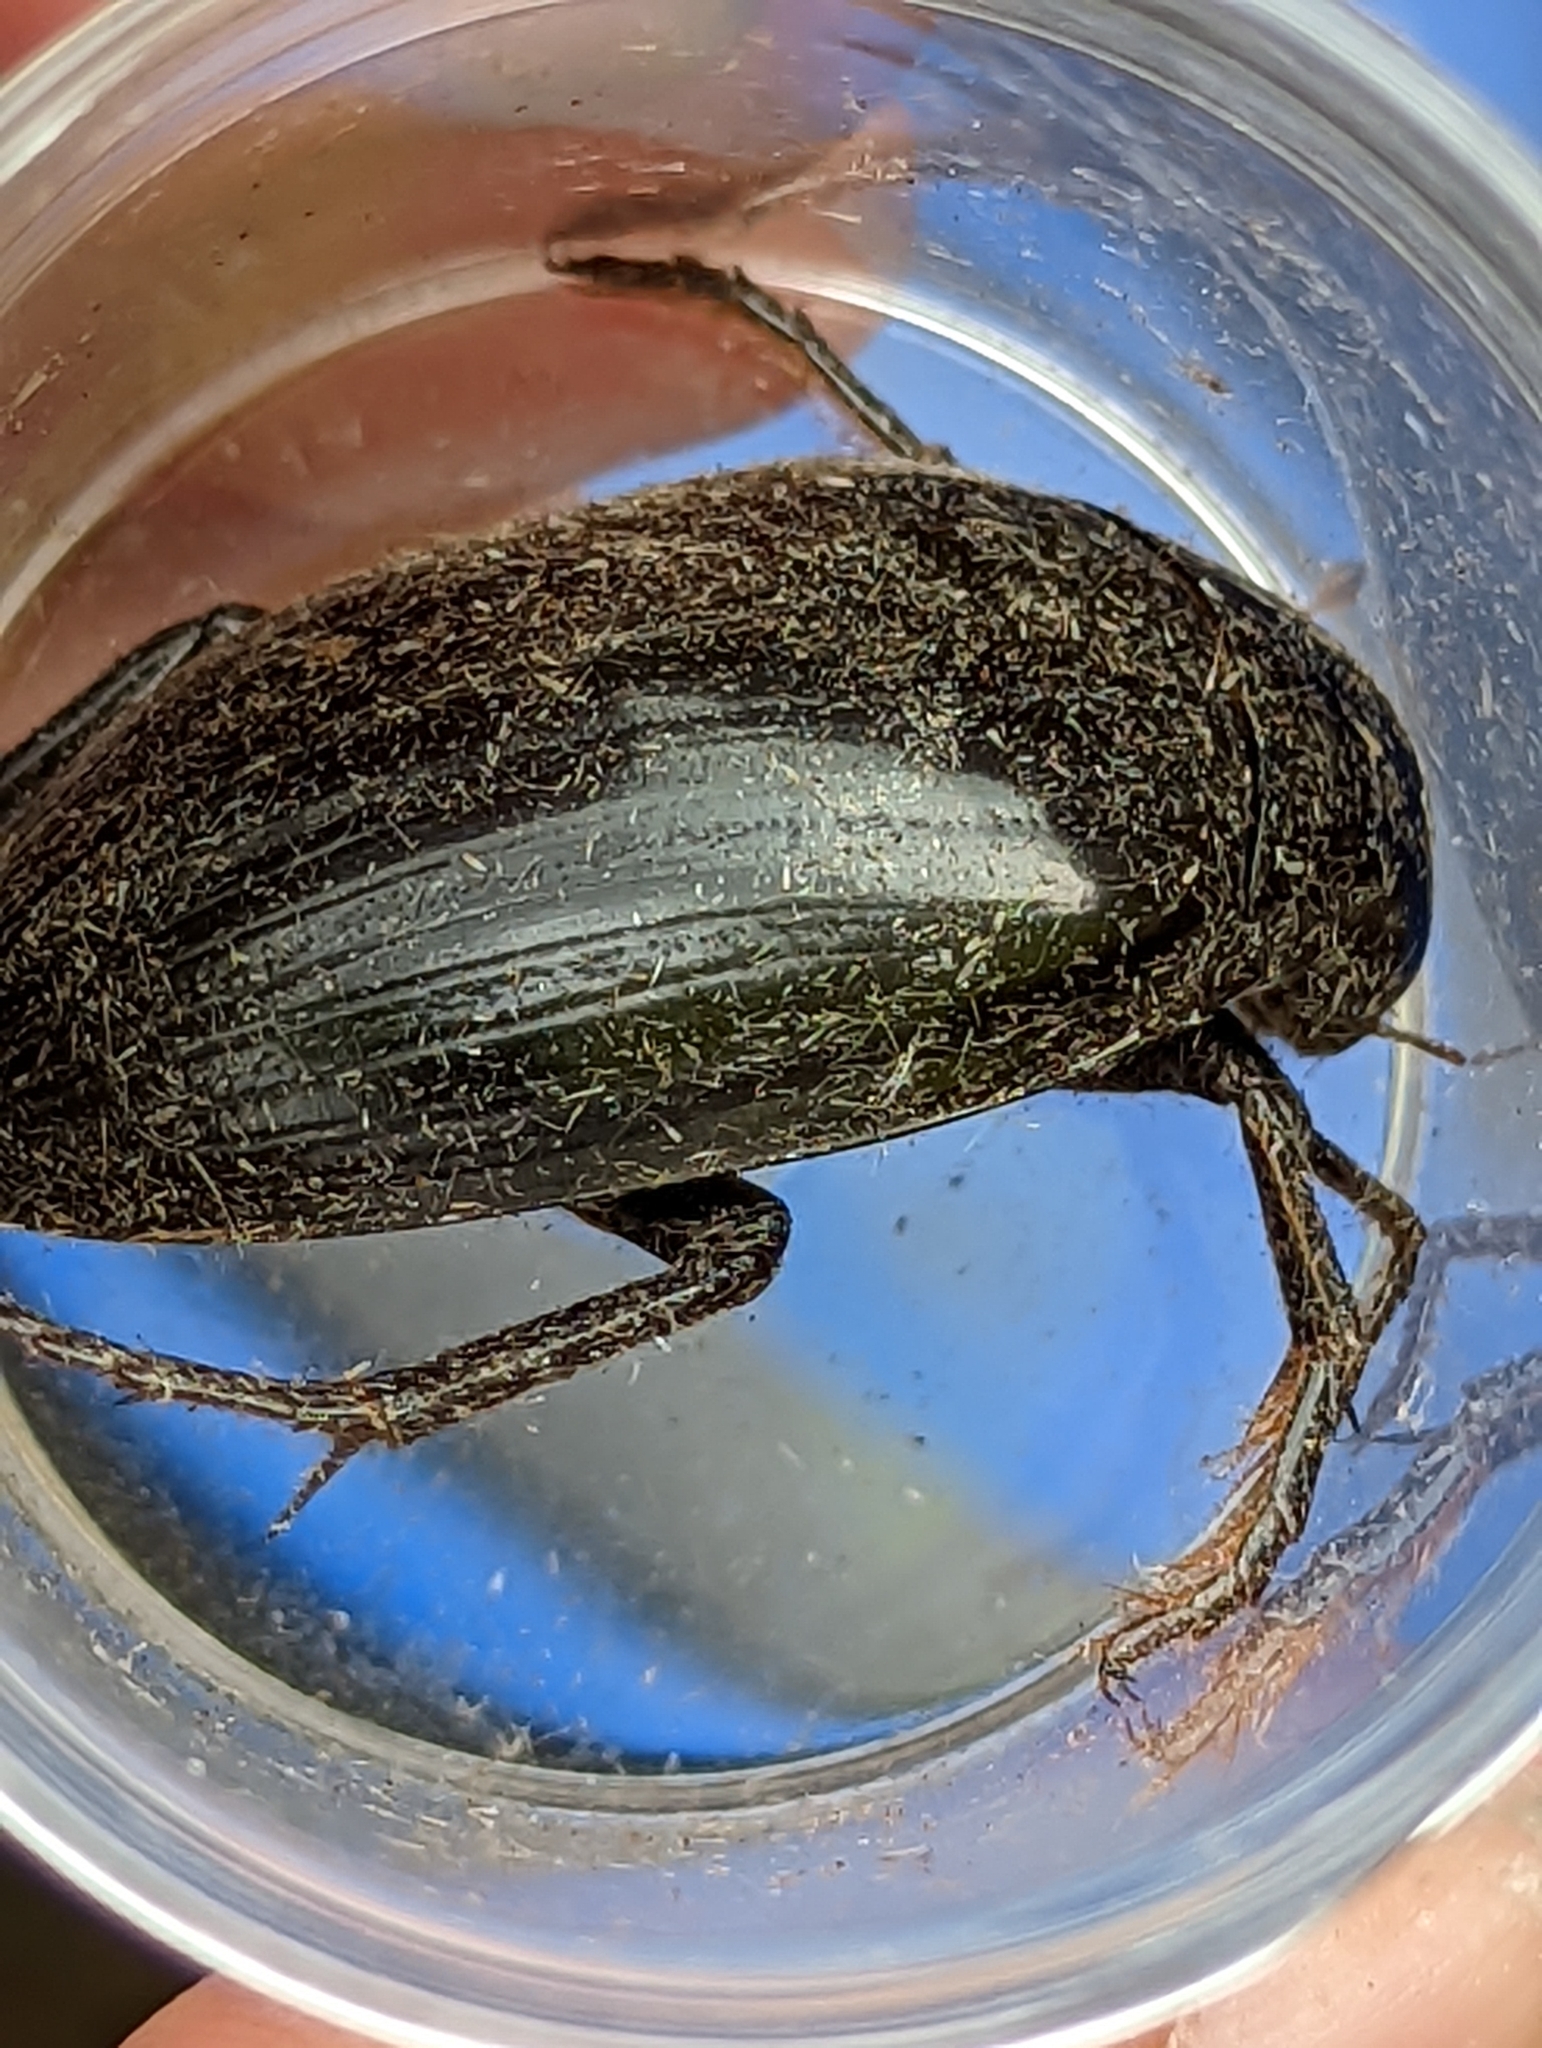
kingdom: Animalia
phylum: Arthropoda
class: Insecta
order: Coleoptera
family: Hydrophilidae
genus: Hydrophilus
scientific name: Hydrophilus piceus
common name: Great silver water beetle
